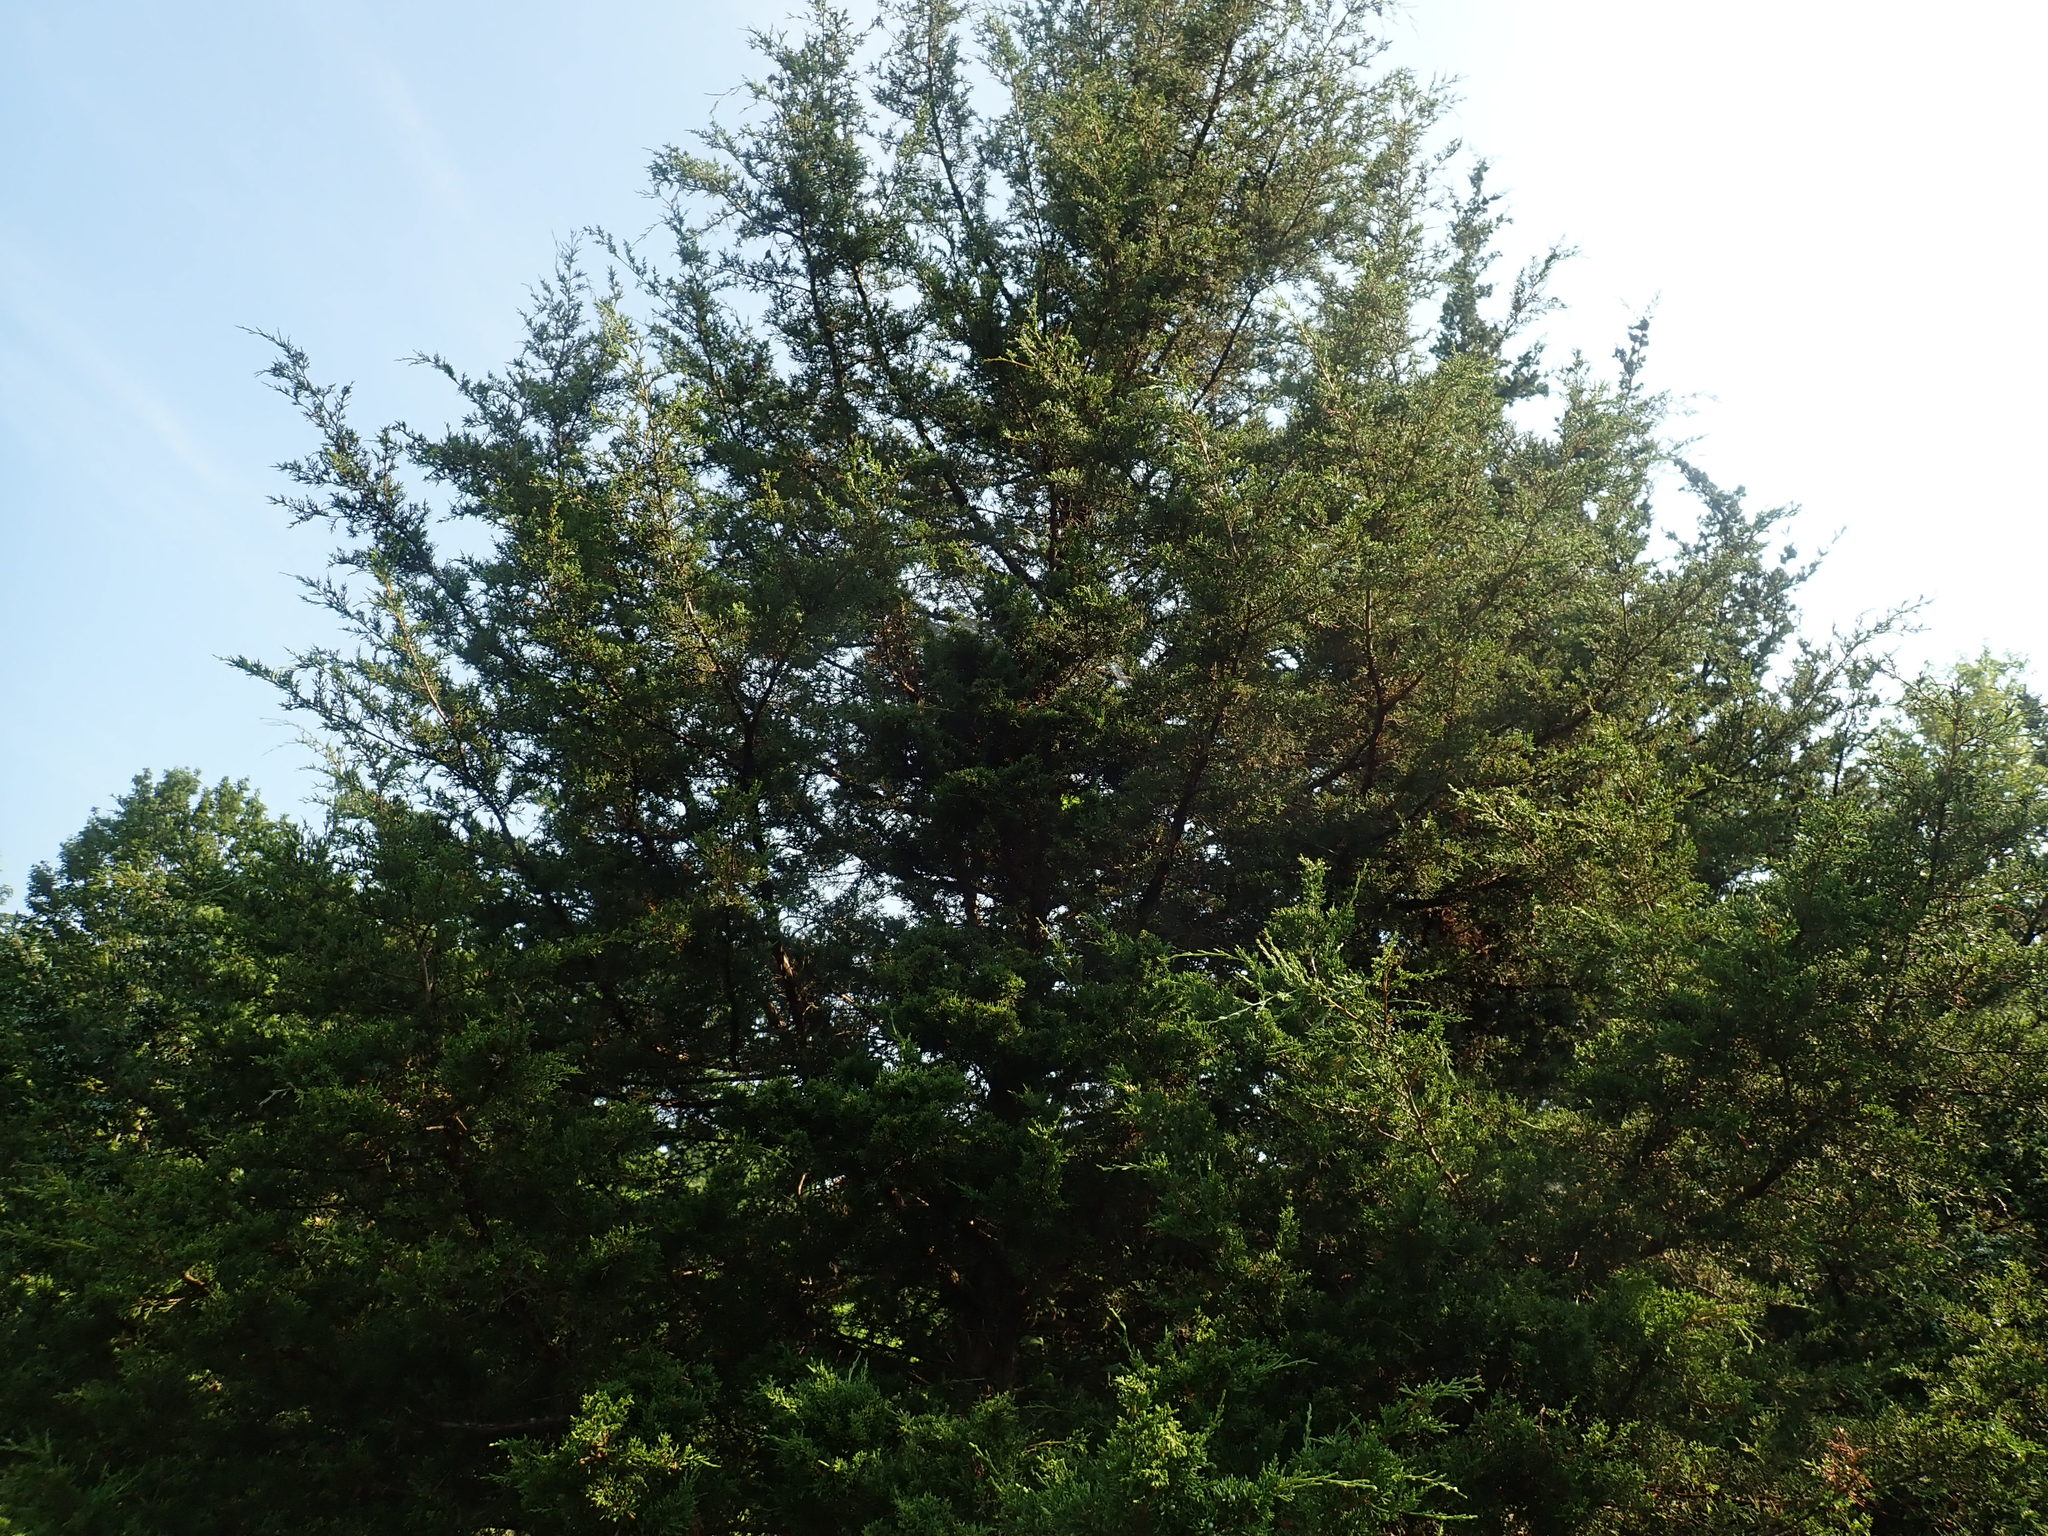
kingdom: Plantae
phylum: Tracheophyta
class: Pinopsida
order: Pinales
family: Cupressaceae
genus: Juniperus
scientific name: Juniperus virginiana
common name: Red juniper
